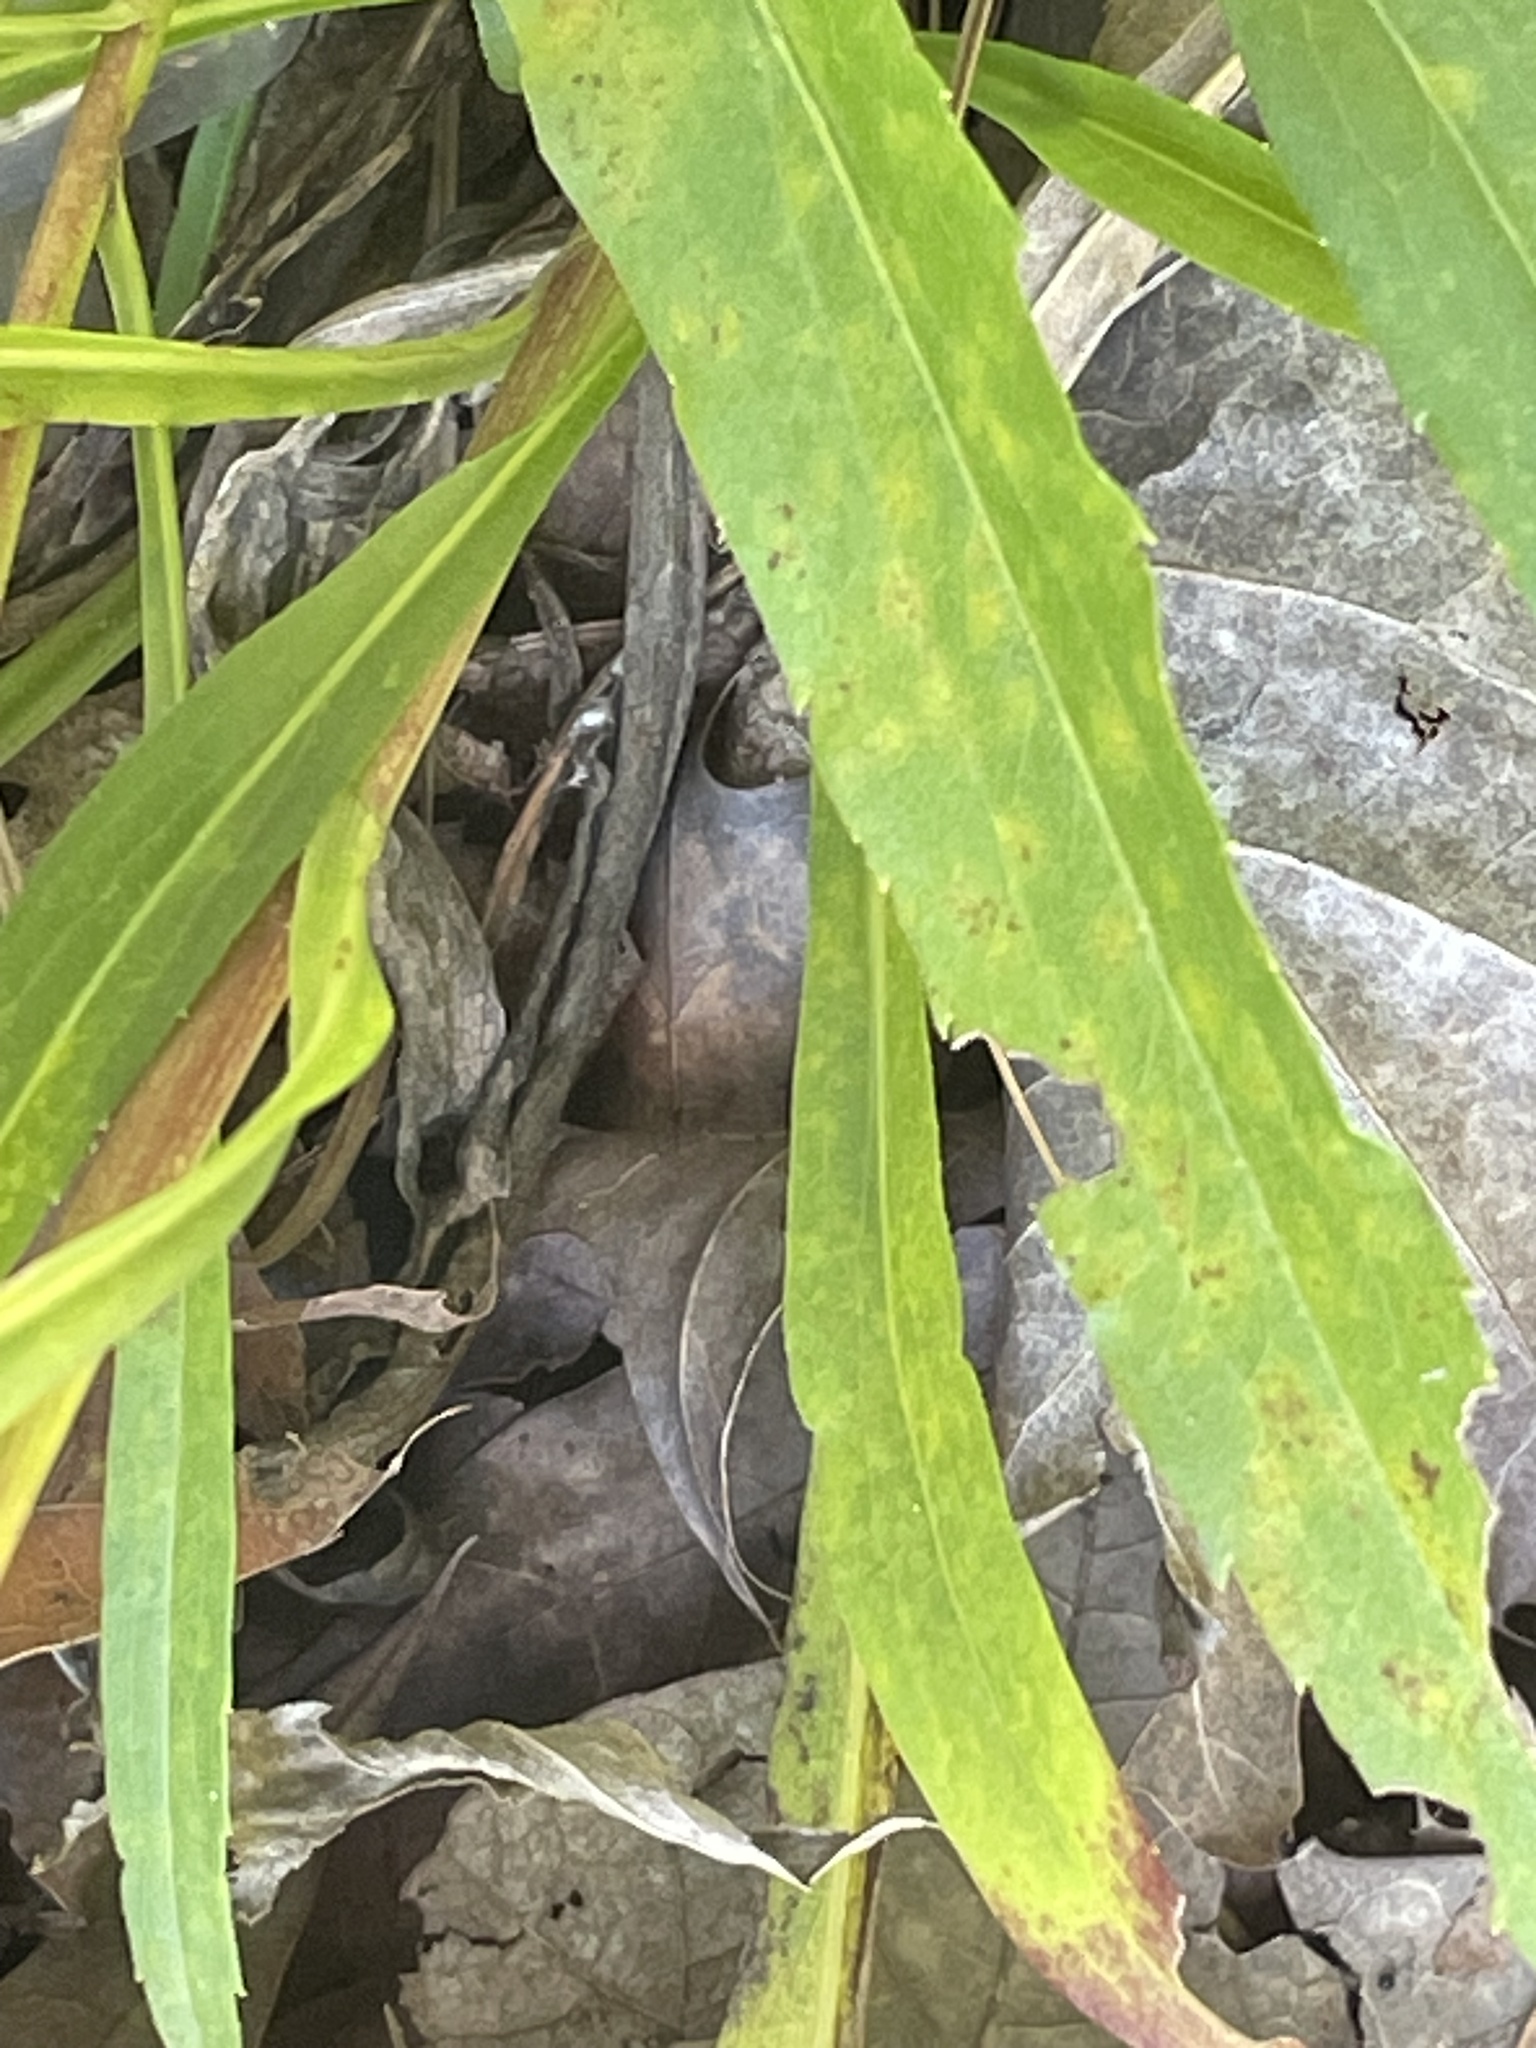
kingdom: Plantae
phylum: Tracheophyta
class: Magnoliopsida
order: Asterales
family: Asteraceae
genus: Solidago
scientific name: Solidago pinetorum
